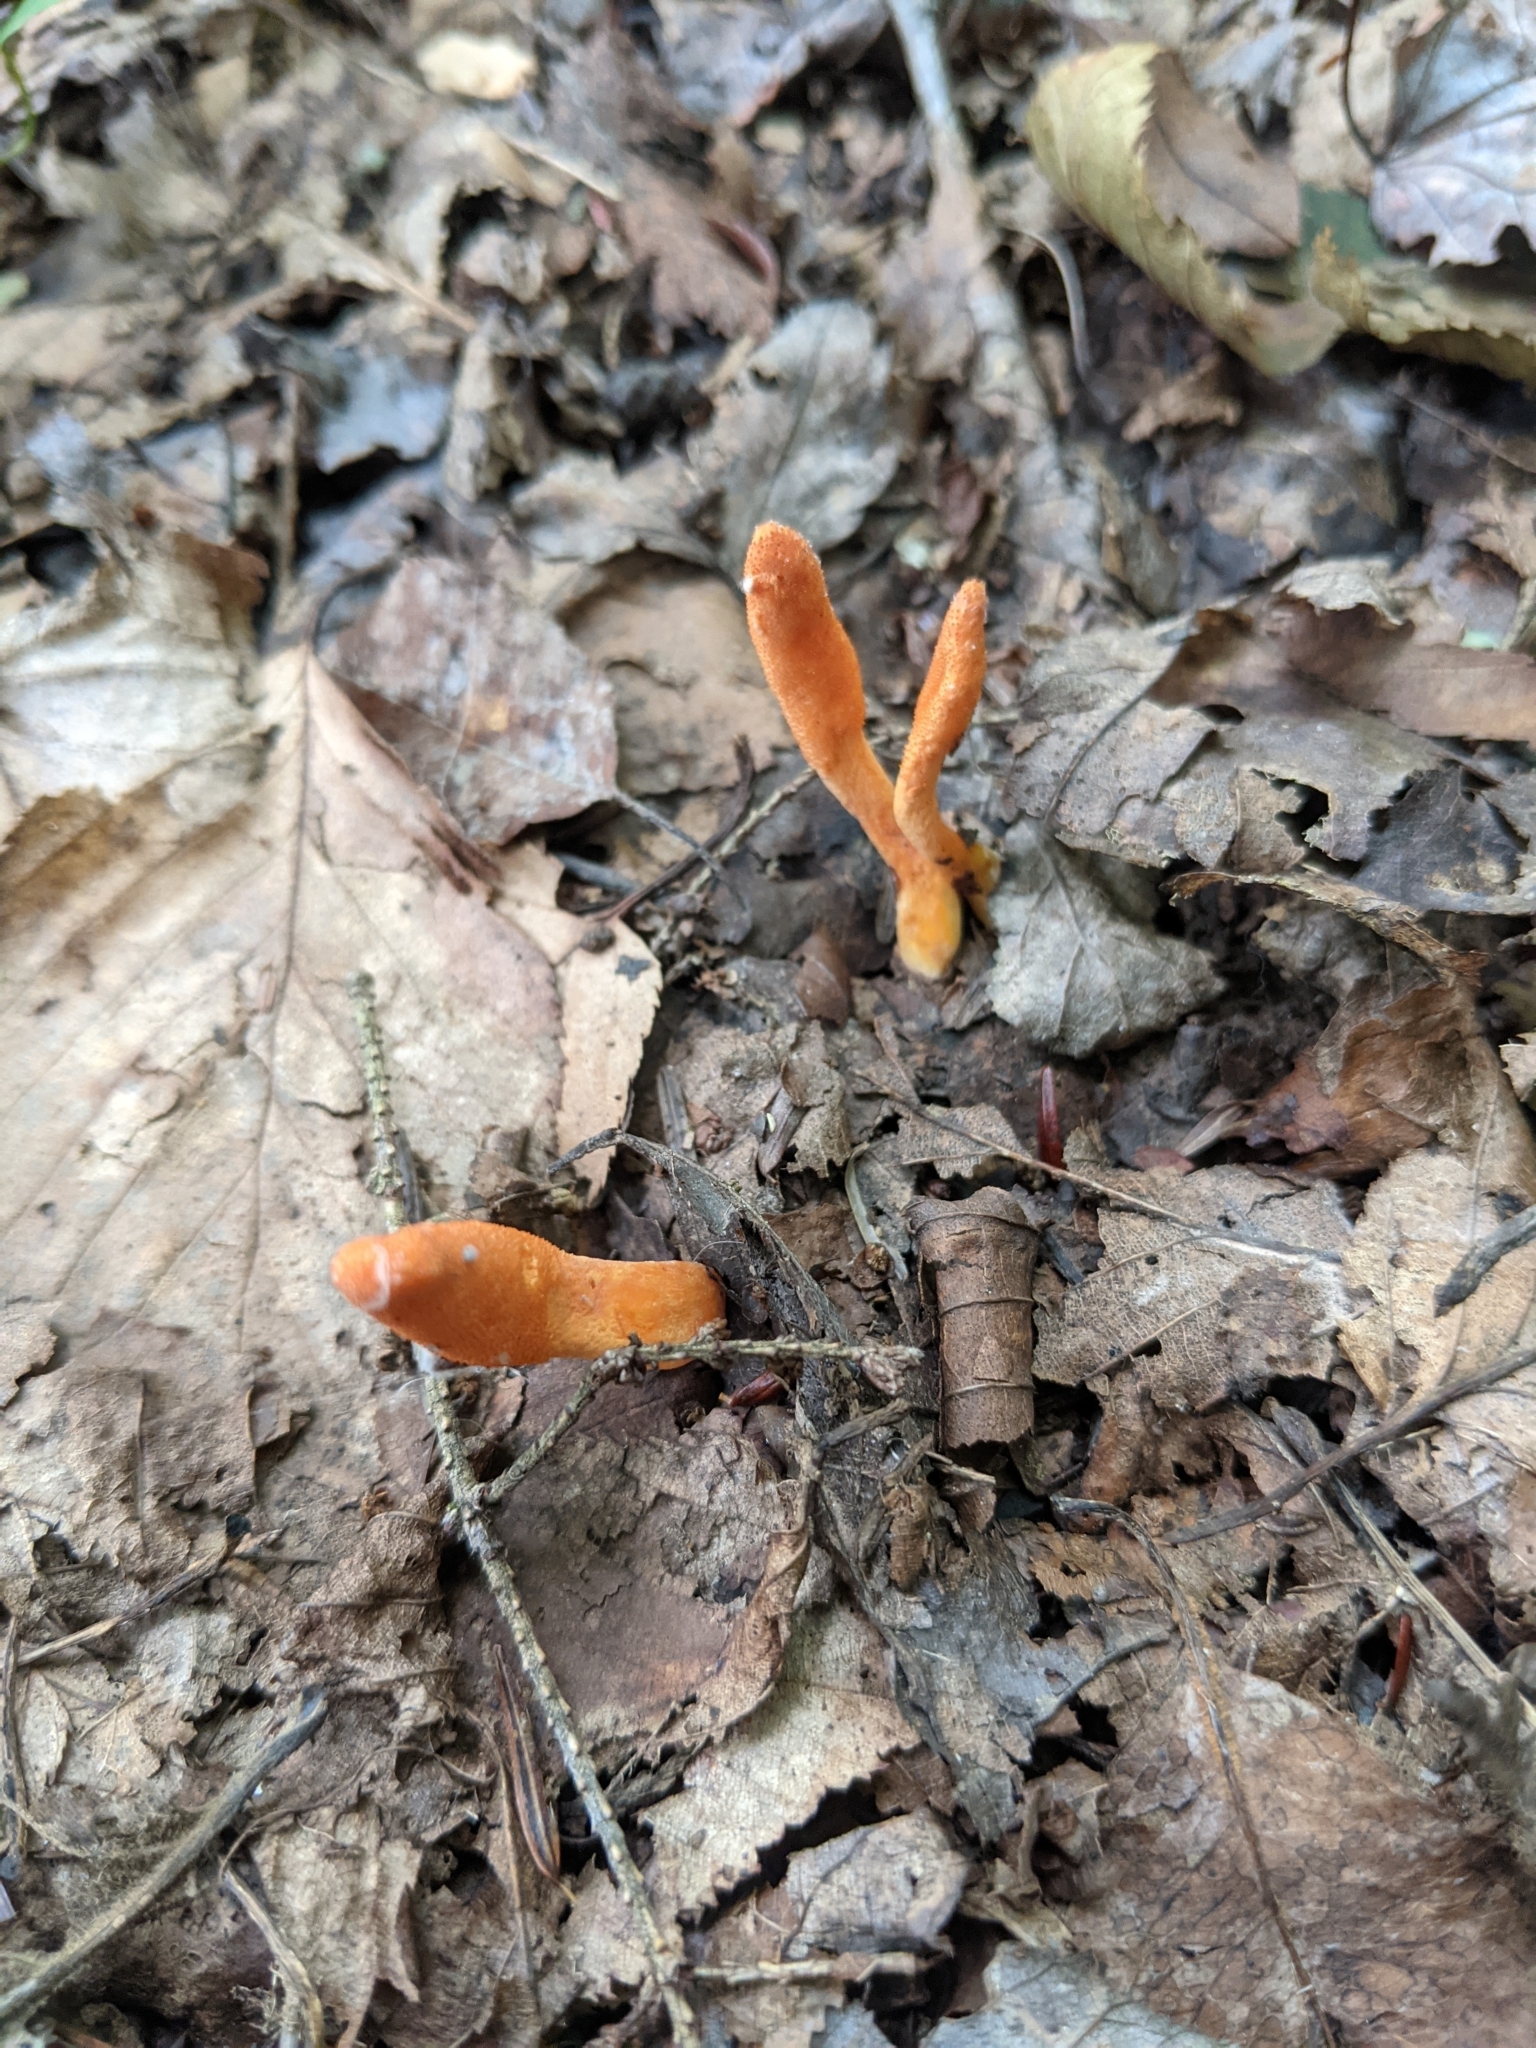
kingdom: Fungi
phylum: Ascomycota
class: Sordariomycetes
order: Hypocreales
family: Cordycipitaceae
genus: Cordyceps
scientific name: Cordyceps militaris
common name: Scarlet caterpillar fungus
